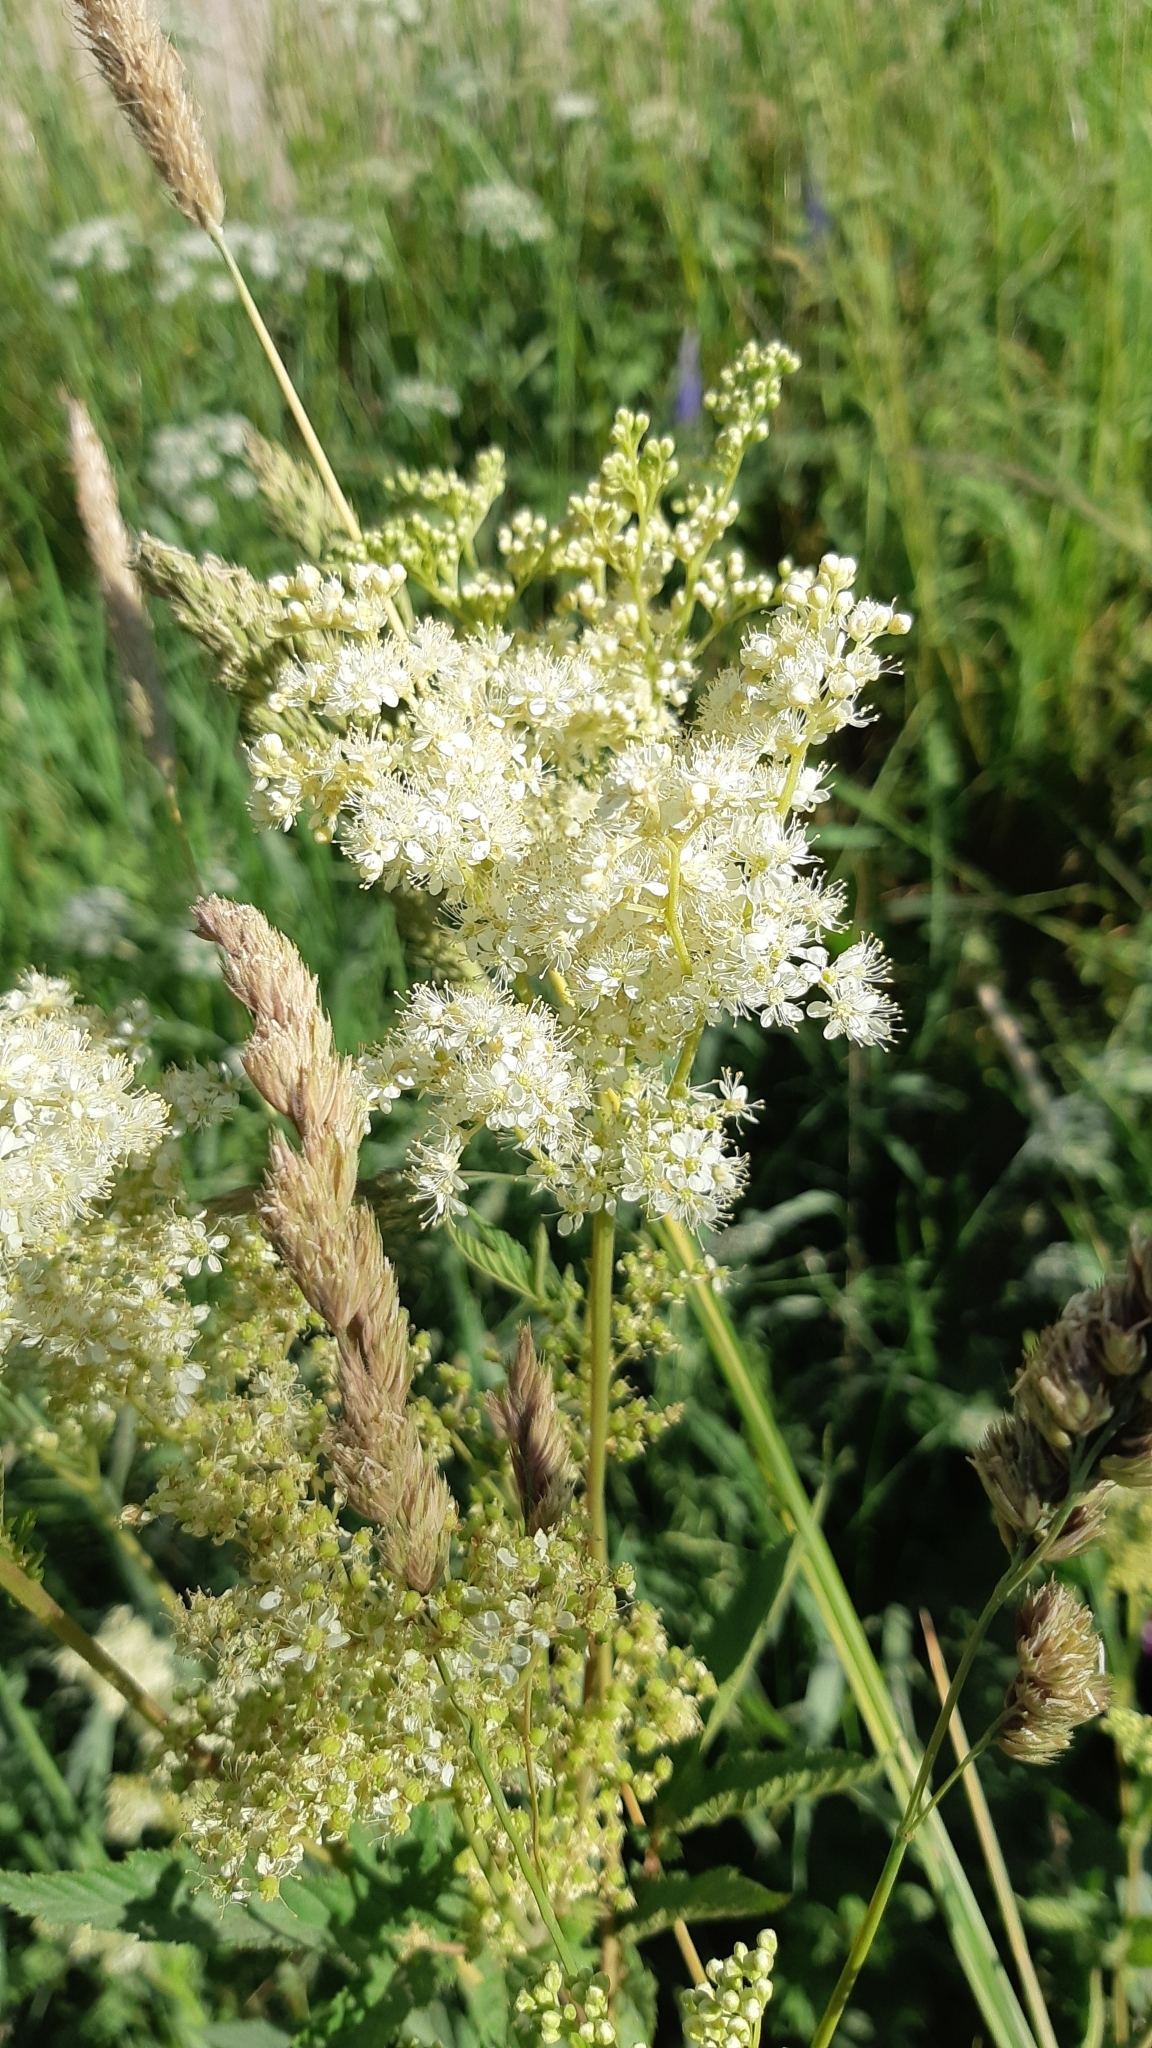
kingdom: Plantae
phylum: Tracheophyta
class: Magnoliopsida
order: Rosales
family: Rosaceae
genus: Filipendula
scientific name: Filipendula ulmaria
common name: Meadowsweet
